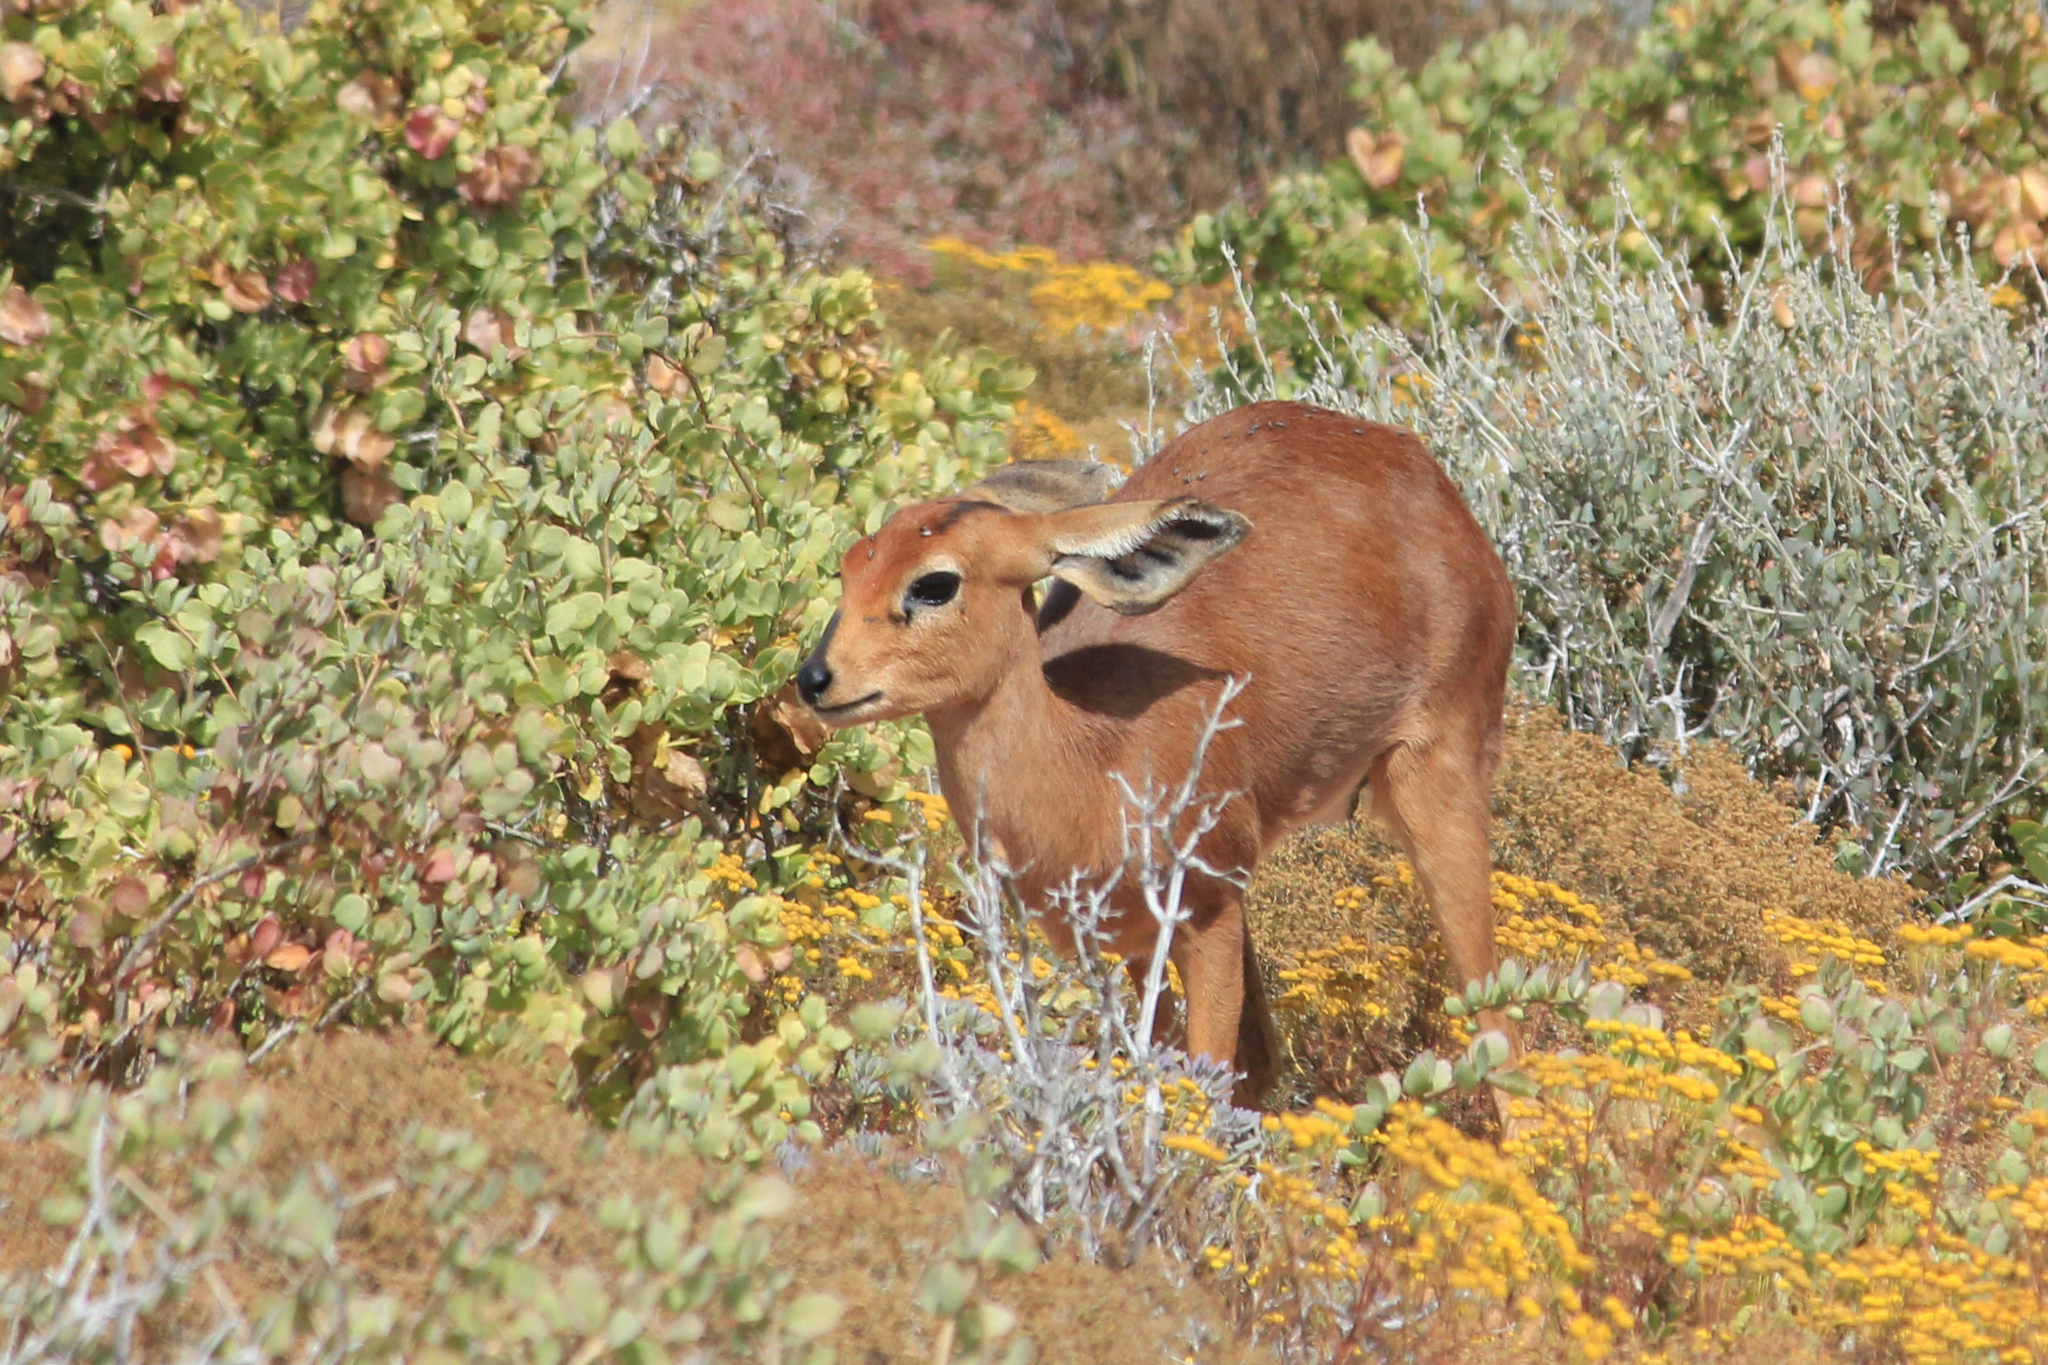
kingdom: Animalia
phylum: Chordata
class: Mammalia
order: Artiodactyla
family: Bovidae
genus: Raphicerus
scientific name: Raphicerus campestris
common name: Steenbok
